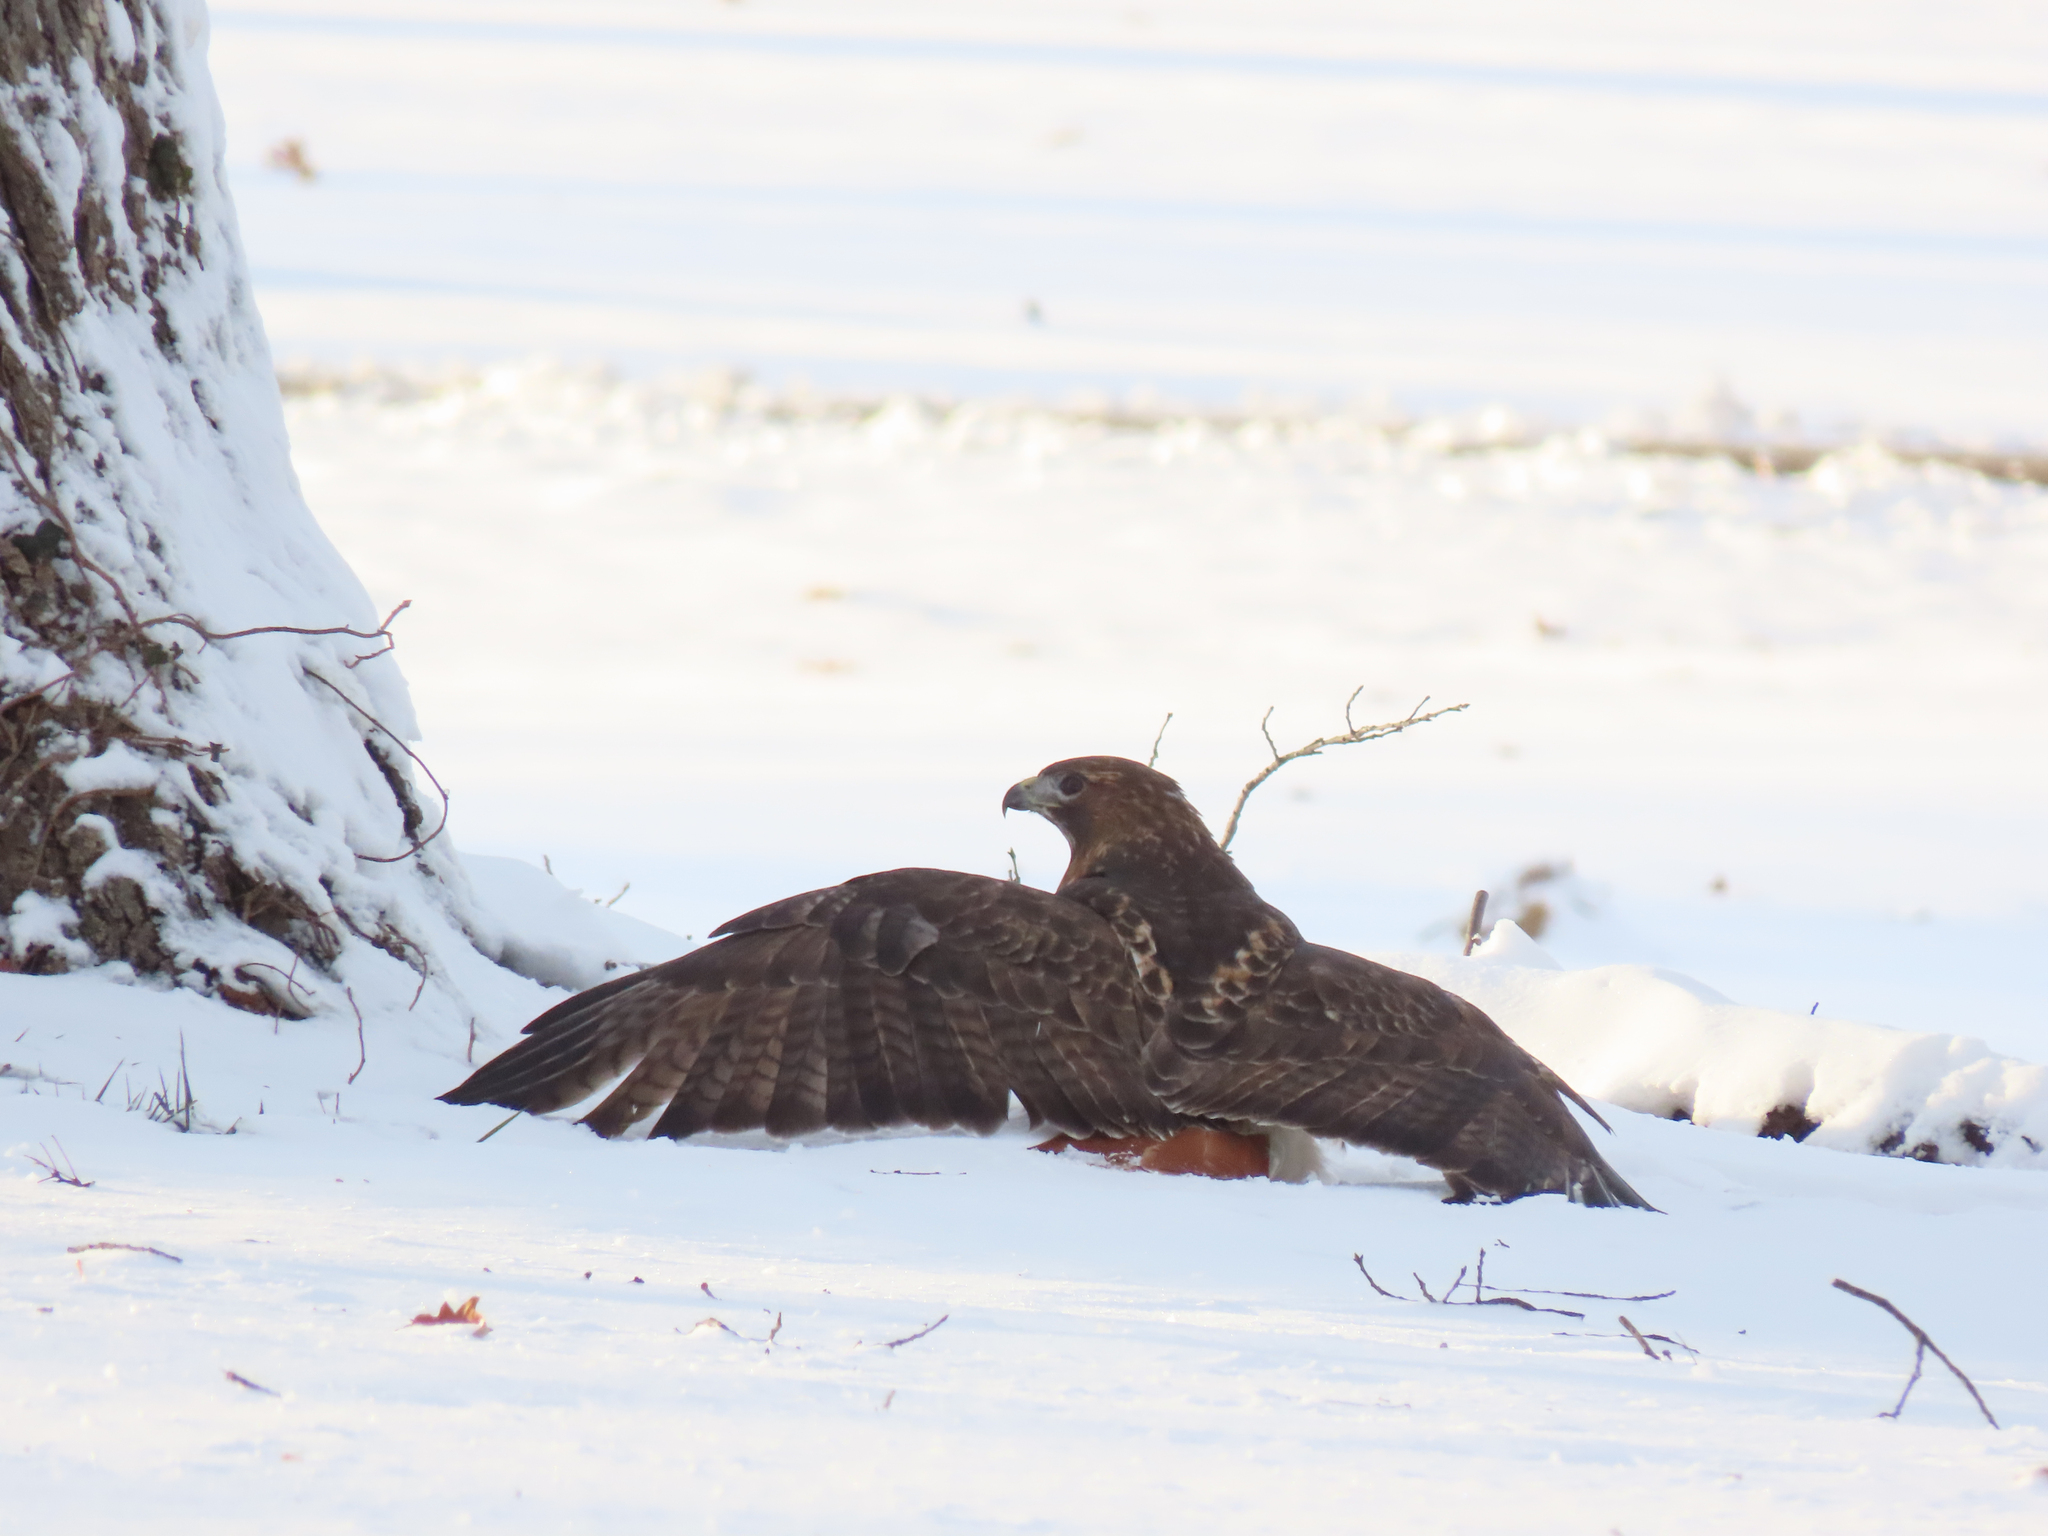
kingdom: Animalia
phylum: Chordata
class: Aves
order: Accipitriformes
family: Accipitridae
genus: Buteo
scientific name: Buteo jamaicensis
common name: Red-tailed hawk
